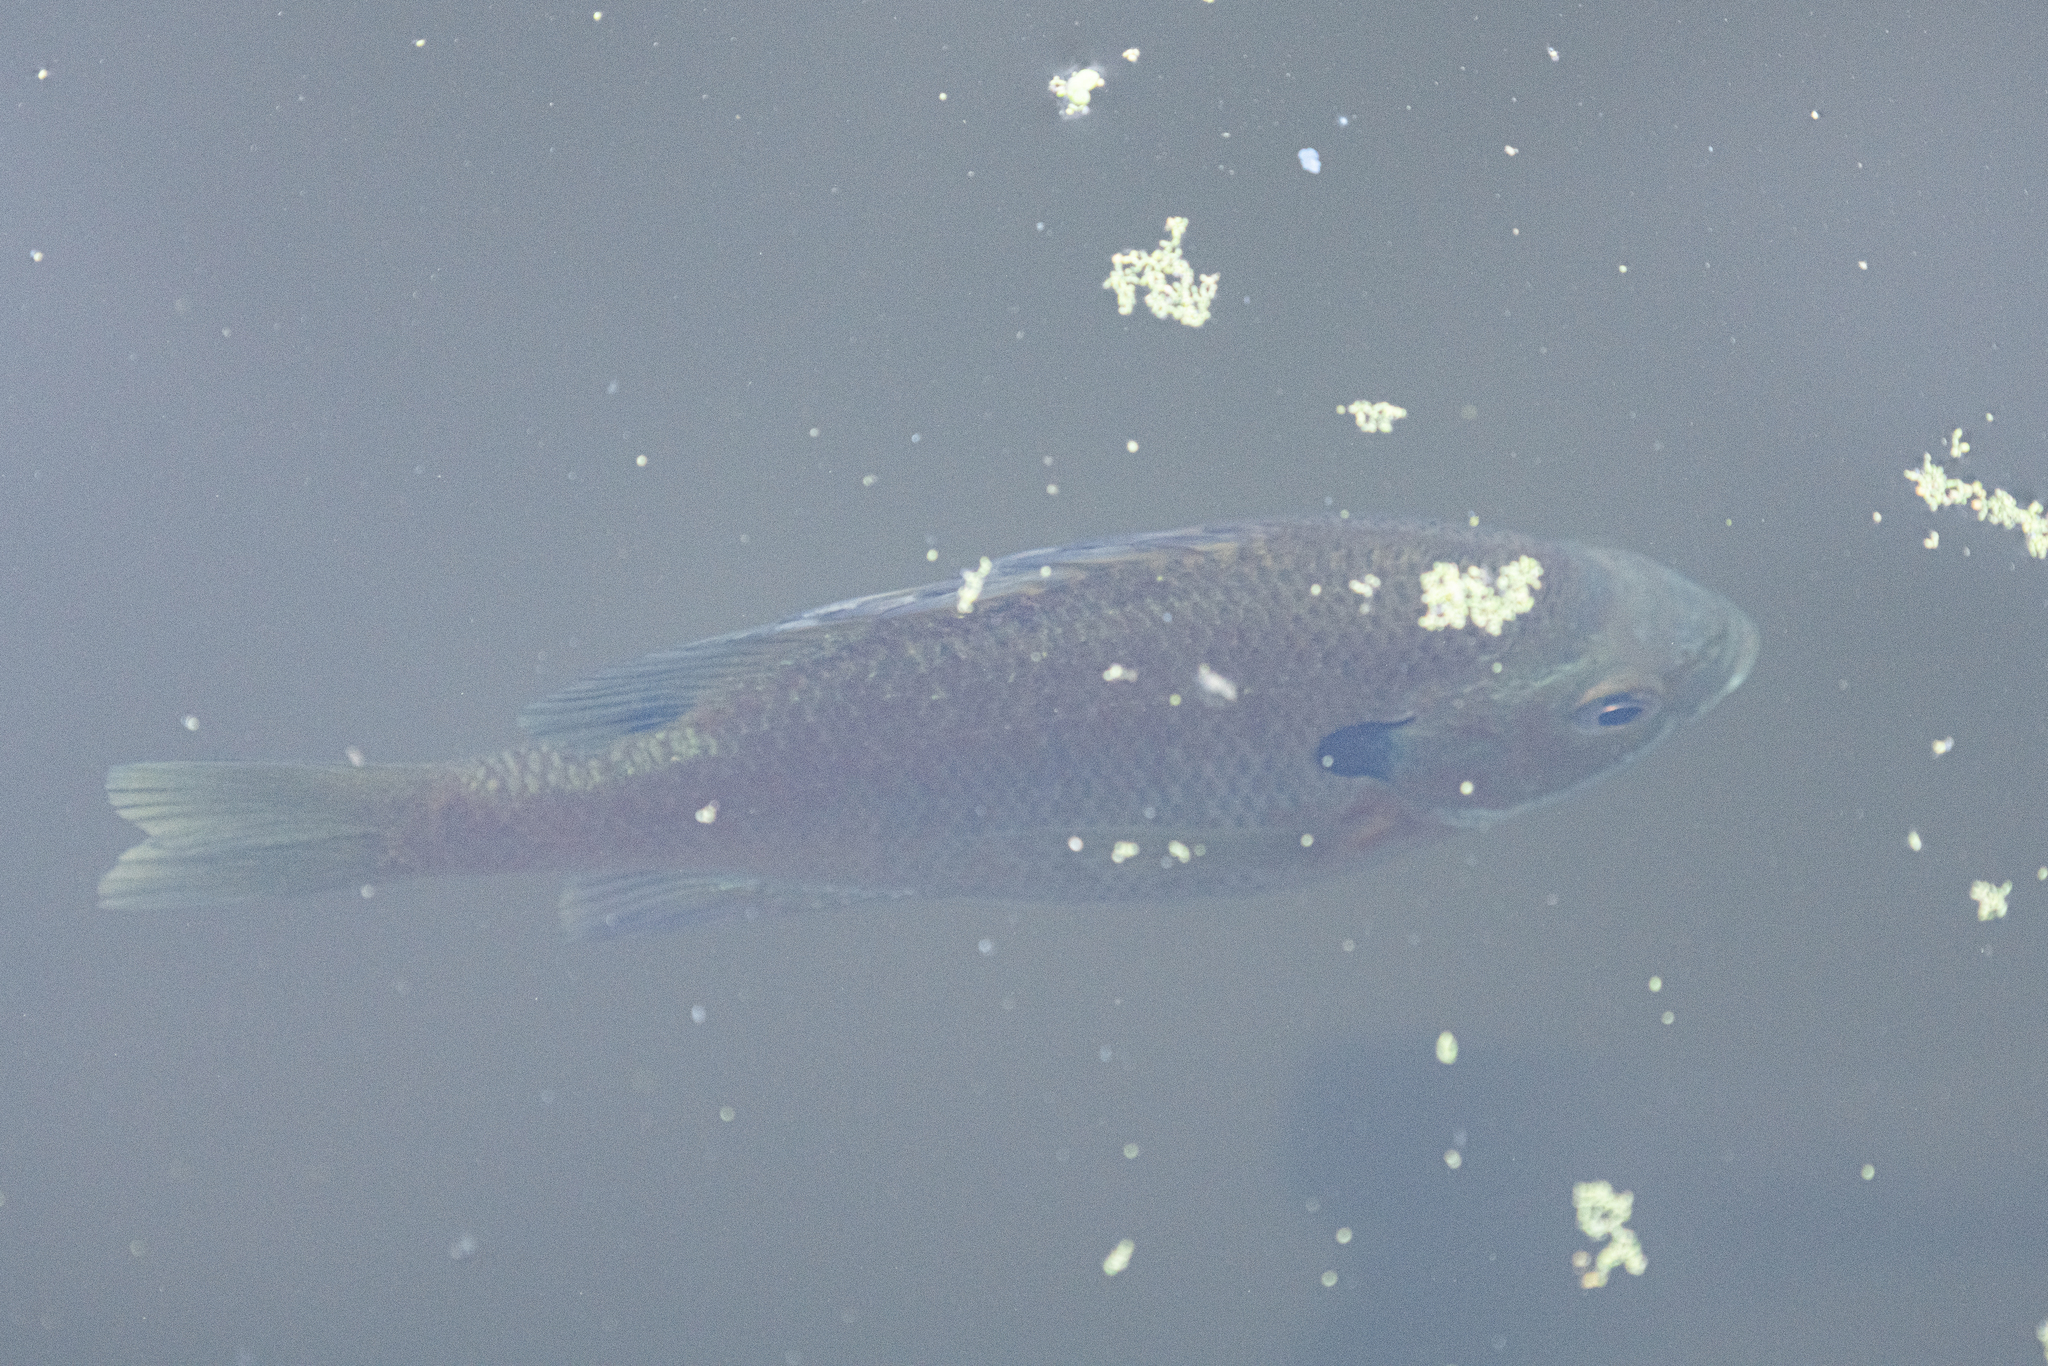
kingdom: Animalia
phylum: Chordata
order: Perciformes
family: Centrarchidae
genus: Lepomis
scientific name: Lepomis macrochirus
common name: Bluegill
